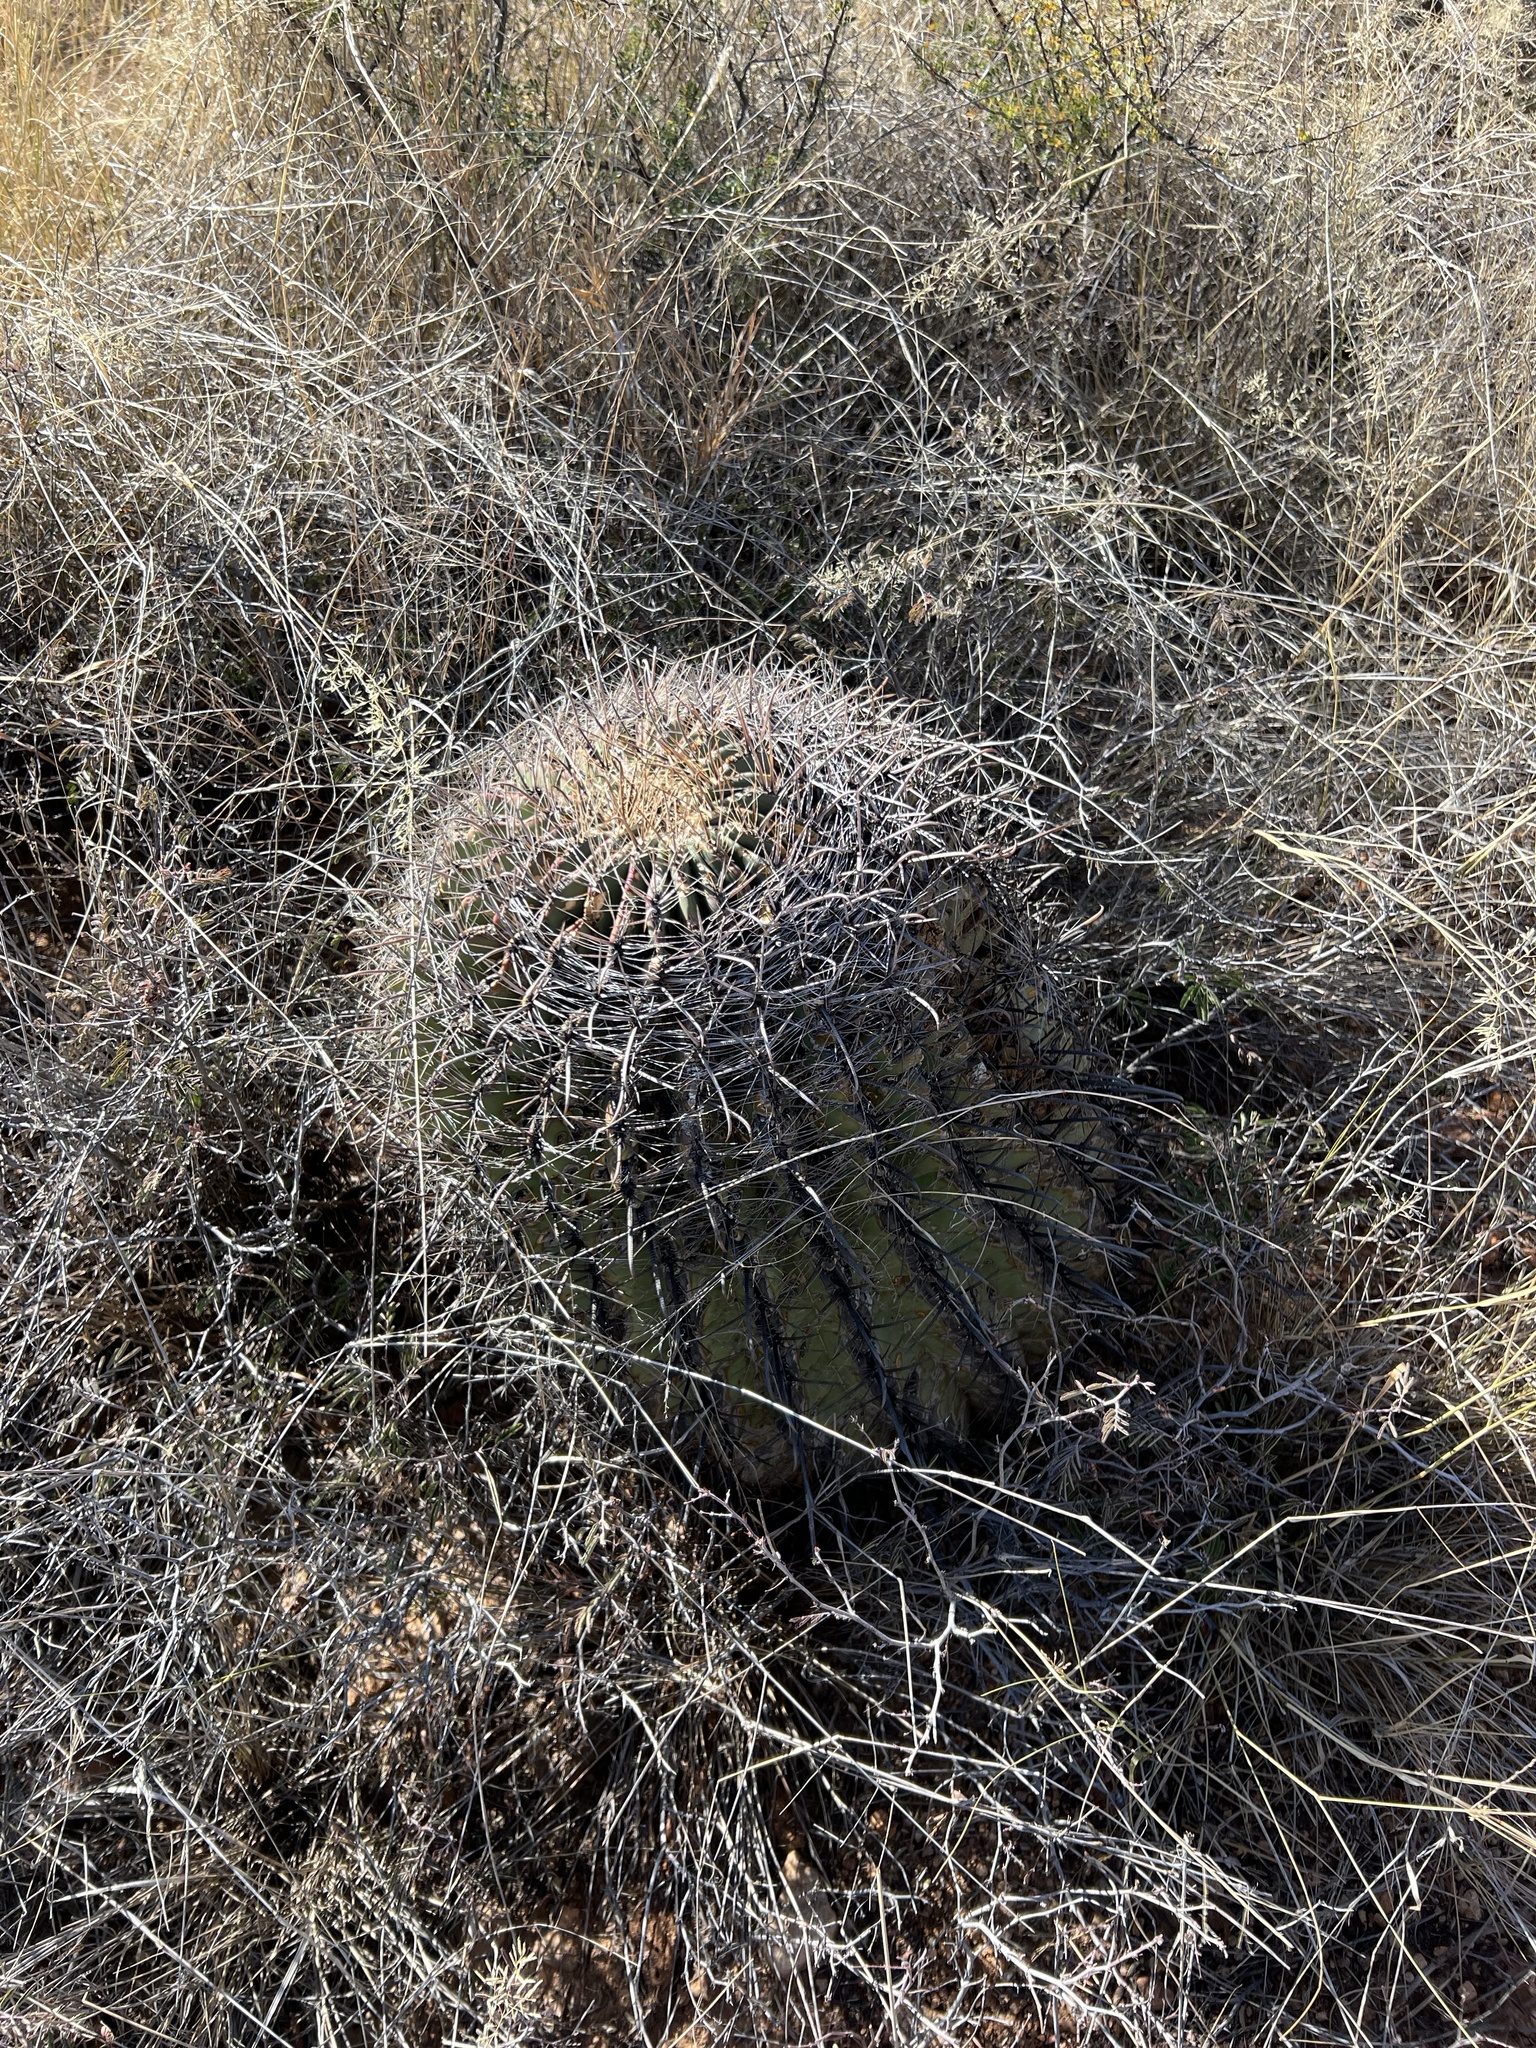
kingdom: Plantae
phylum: Tracheophyta
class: Magnoliopsida
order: Caryophyllales
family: Cactaceae
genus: Ferocactus
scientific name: Ferocactus wislizeni
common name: Candy barrel cactus
